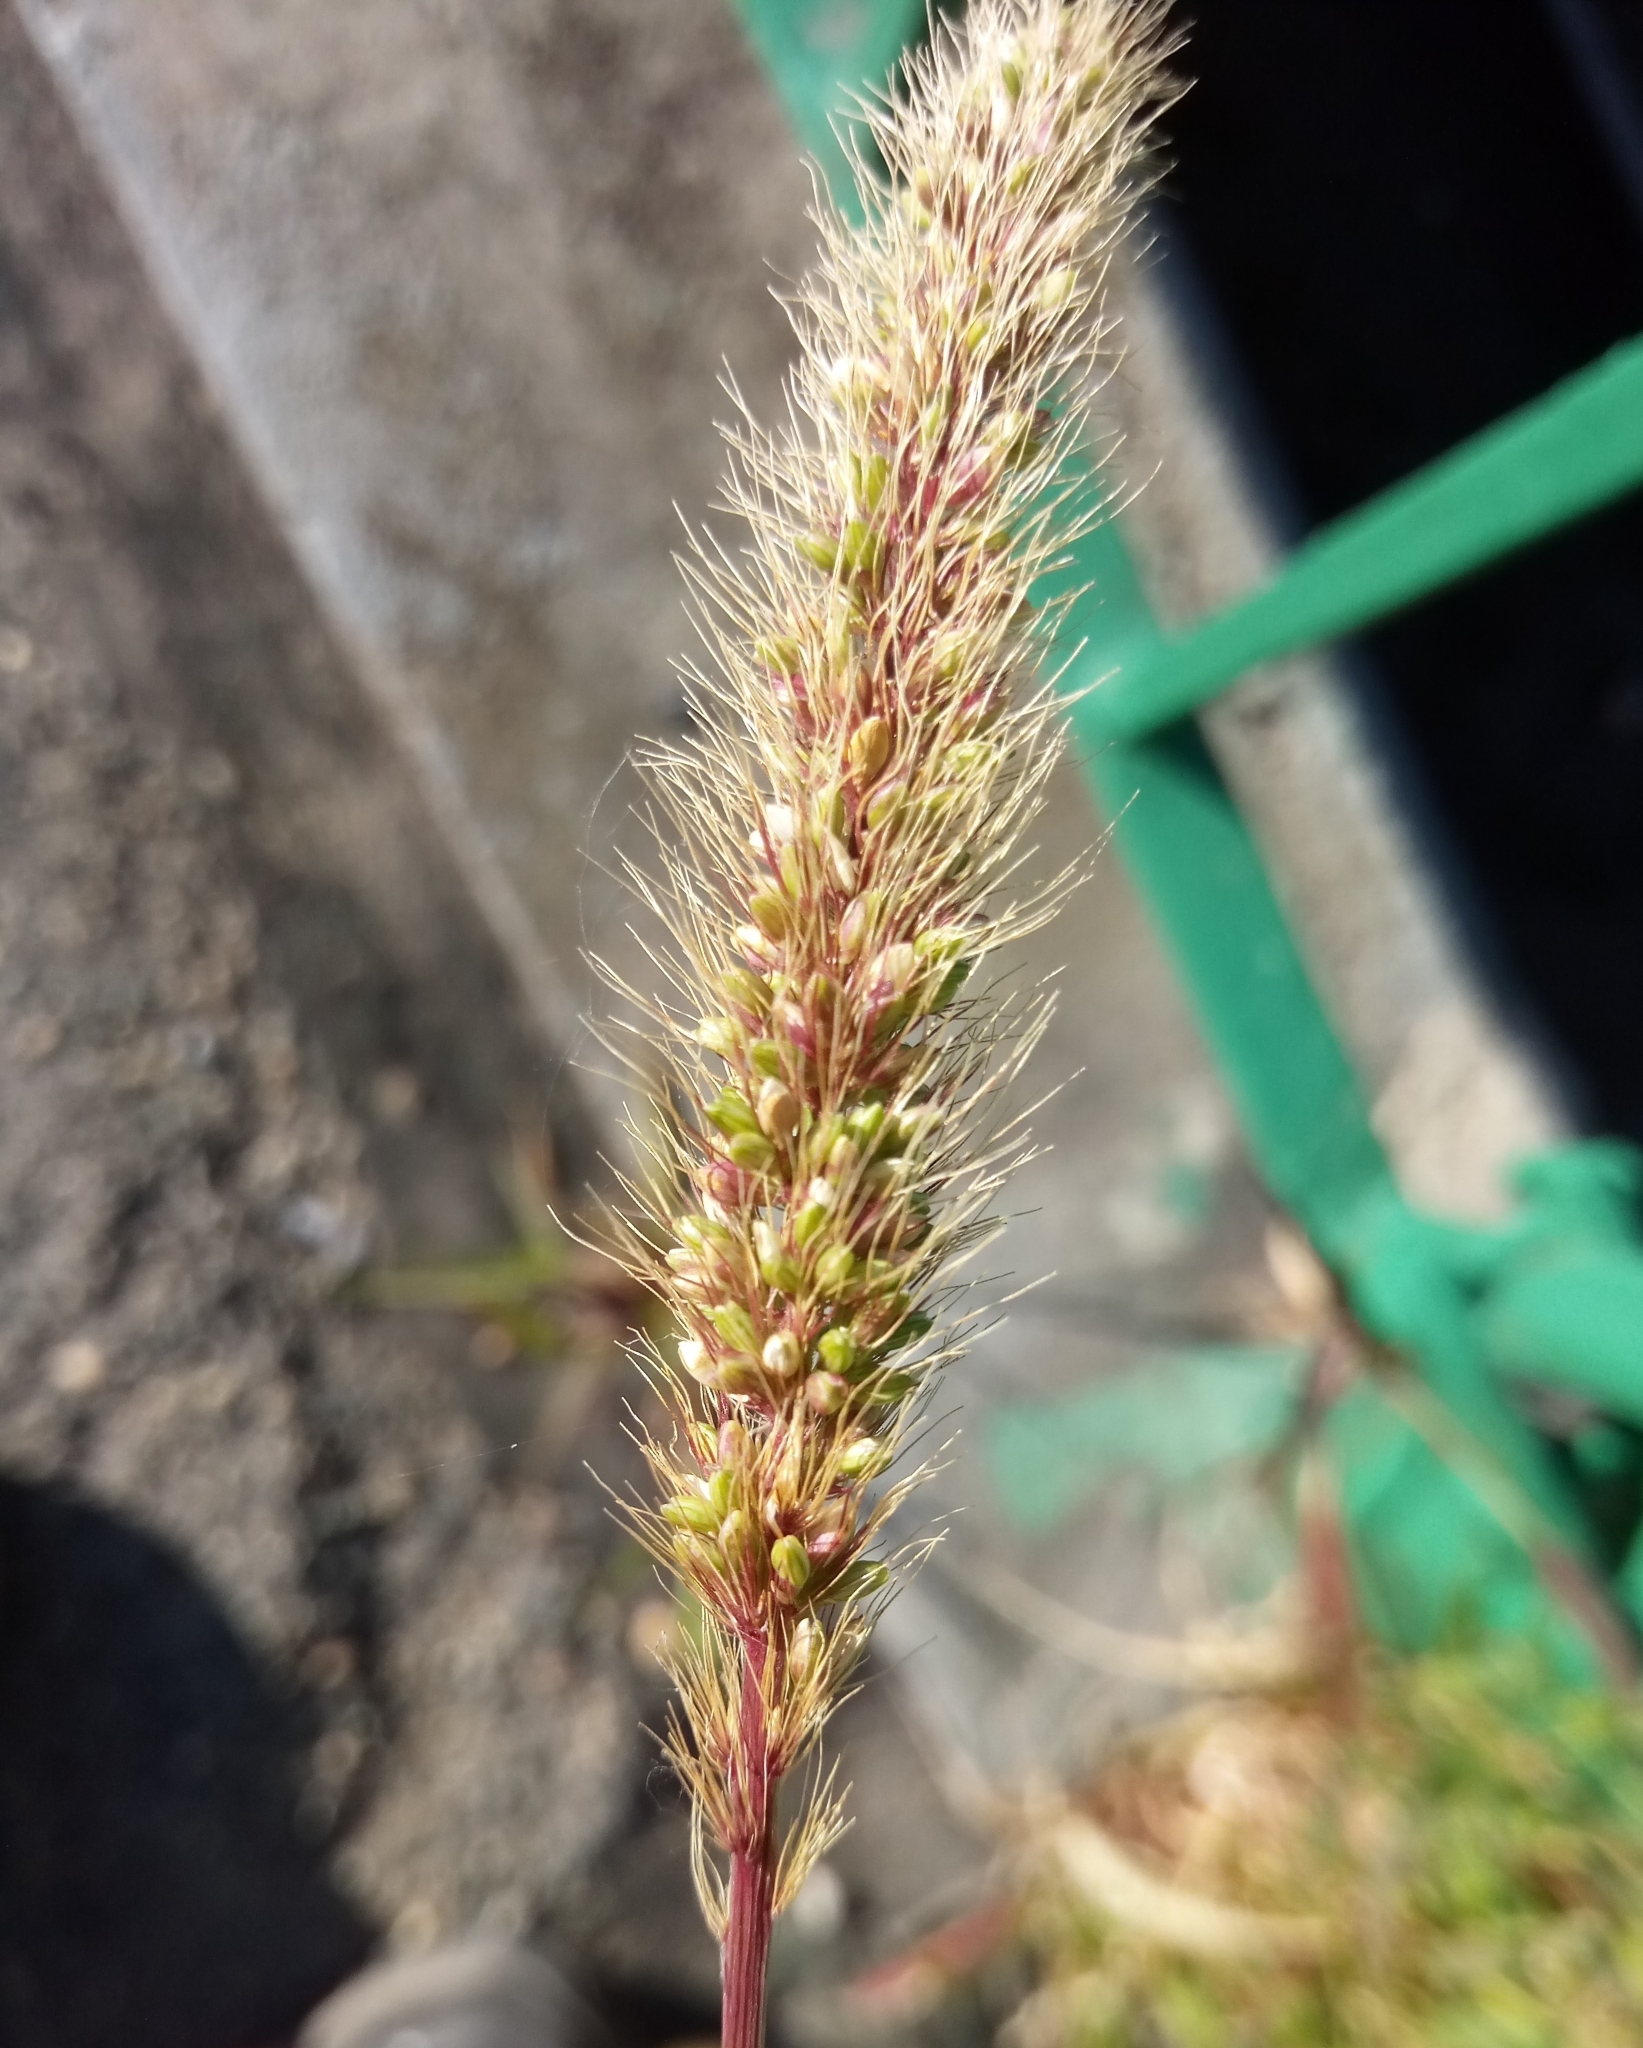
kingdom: Plantae
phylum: Tracheophyta
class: Liliopsida
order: Poales
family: Poaceae
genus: Setaria
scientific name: Setaria viridis
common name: Green bristlegrass
